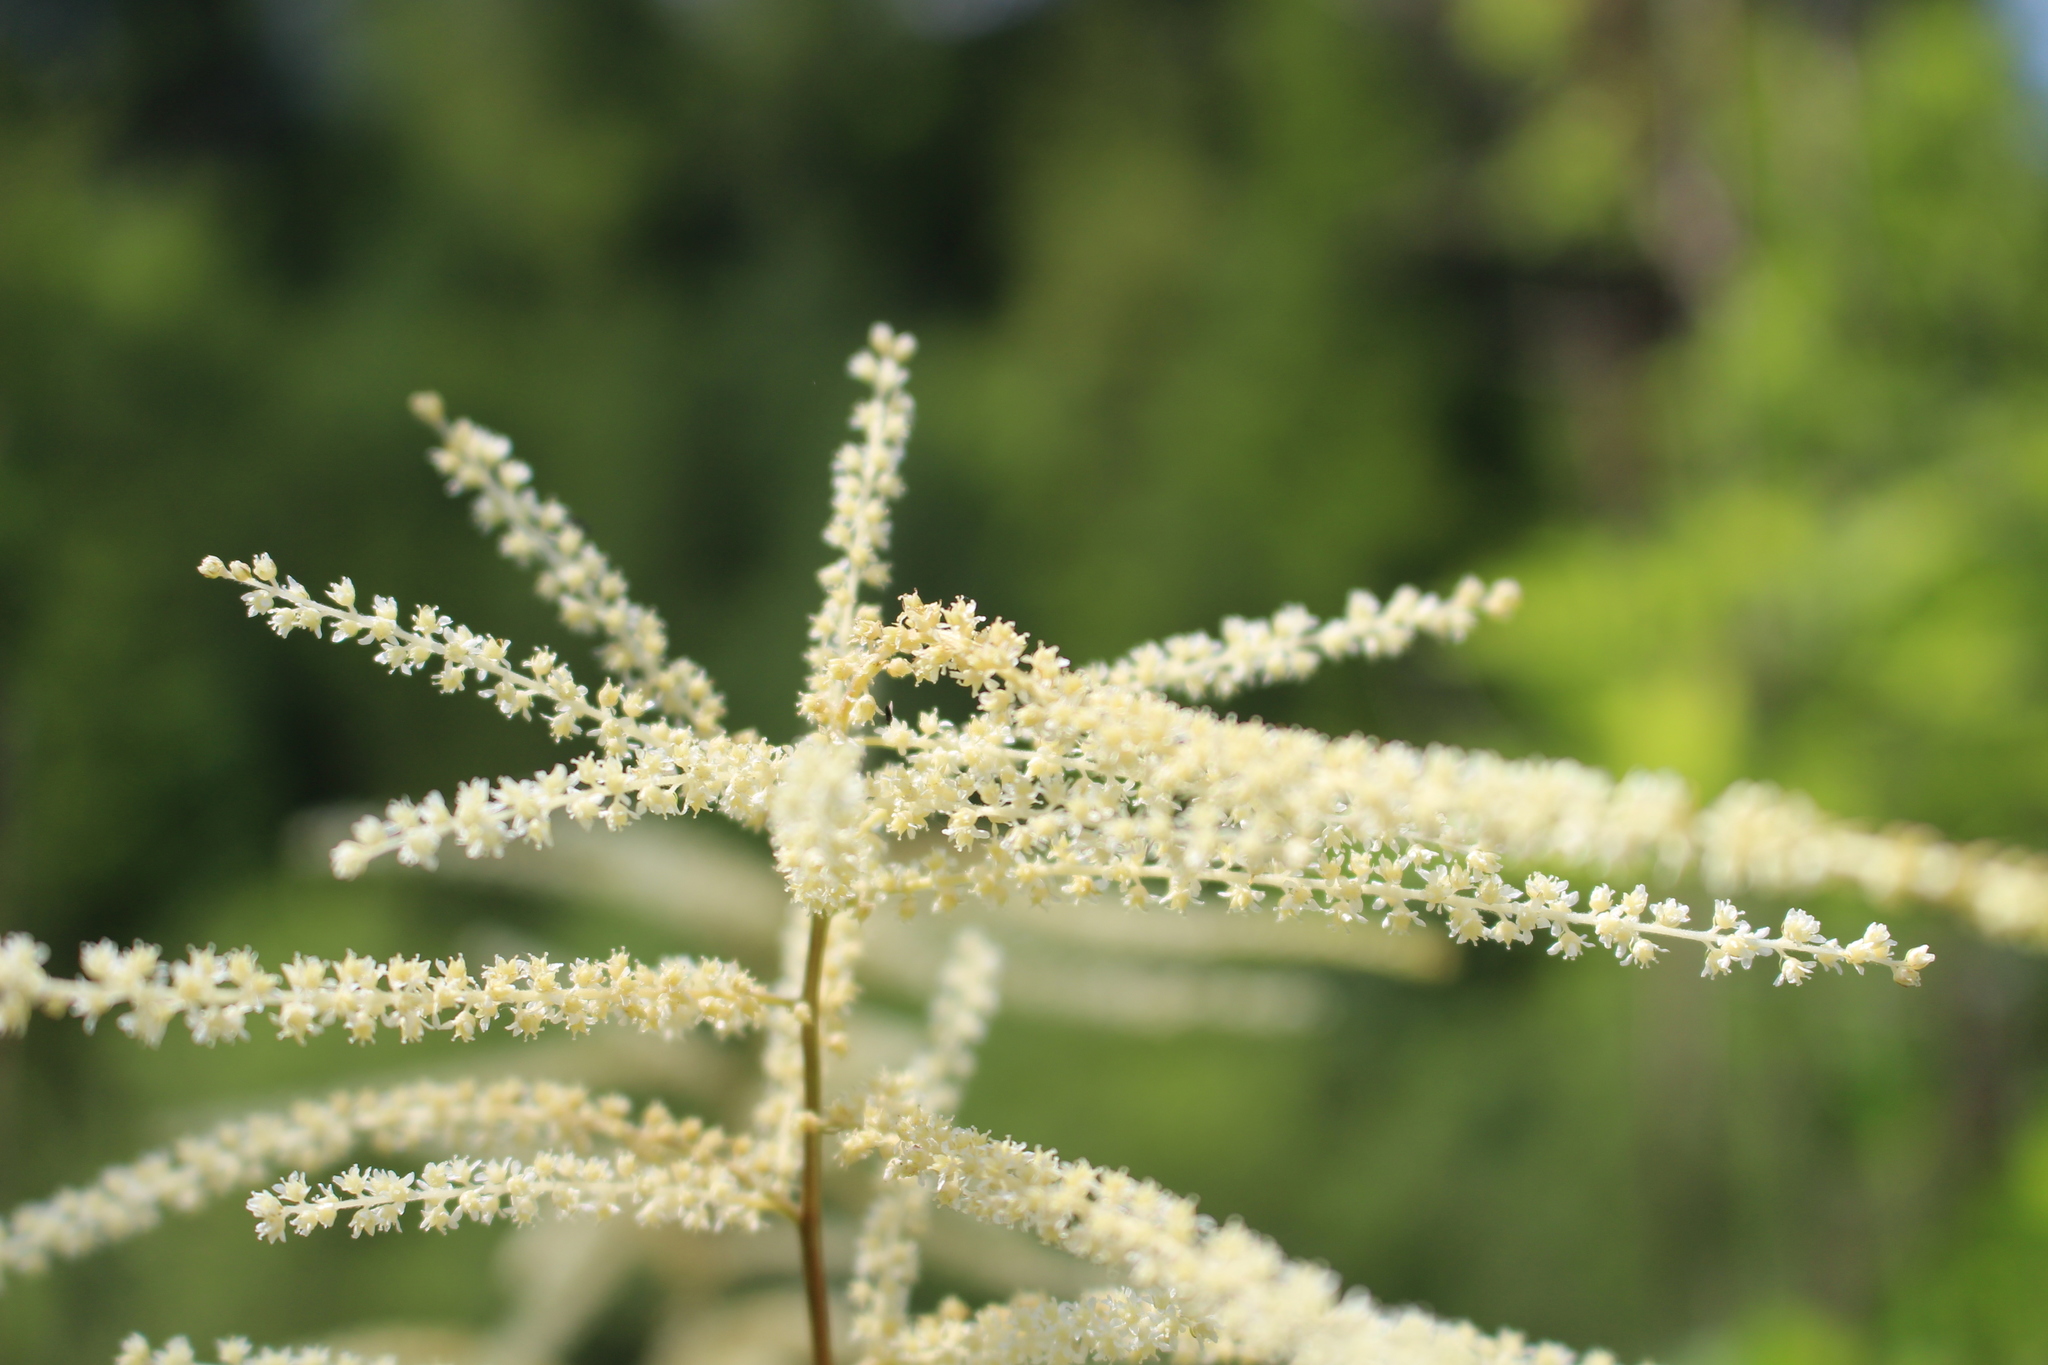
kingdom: Plantae
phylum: Tracheophyta
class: Magnoliopsida
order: Rosales
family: Rosaceae
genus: Aruncus
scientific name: Aruncus dioicus
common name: Buck's-beard
